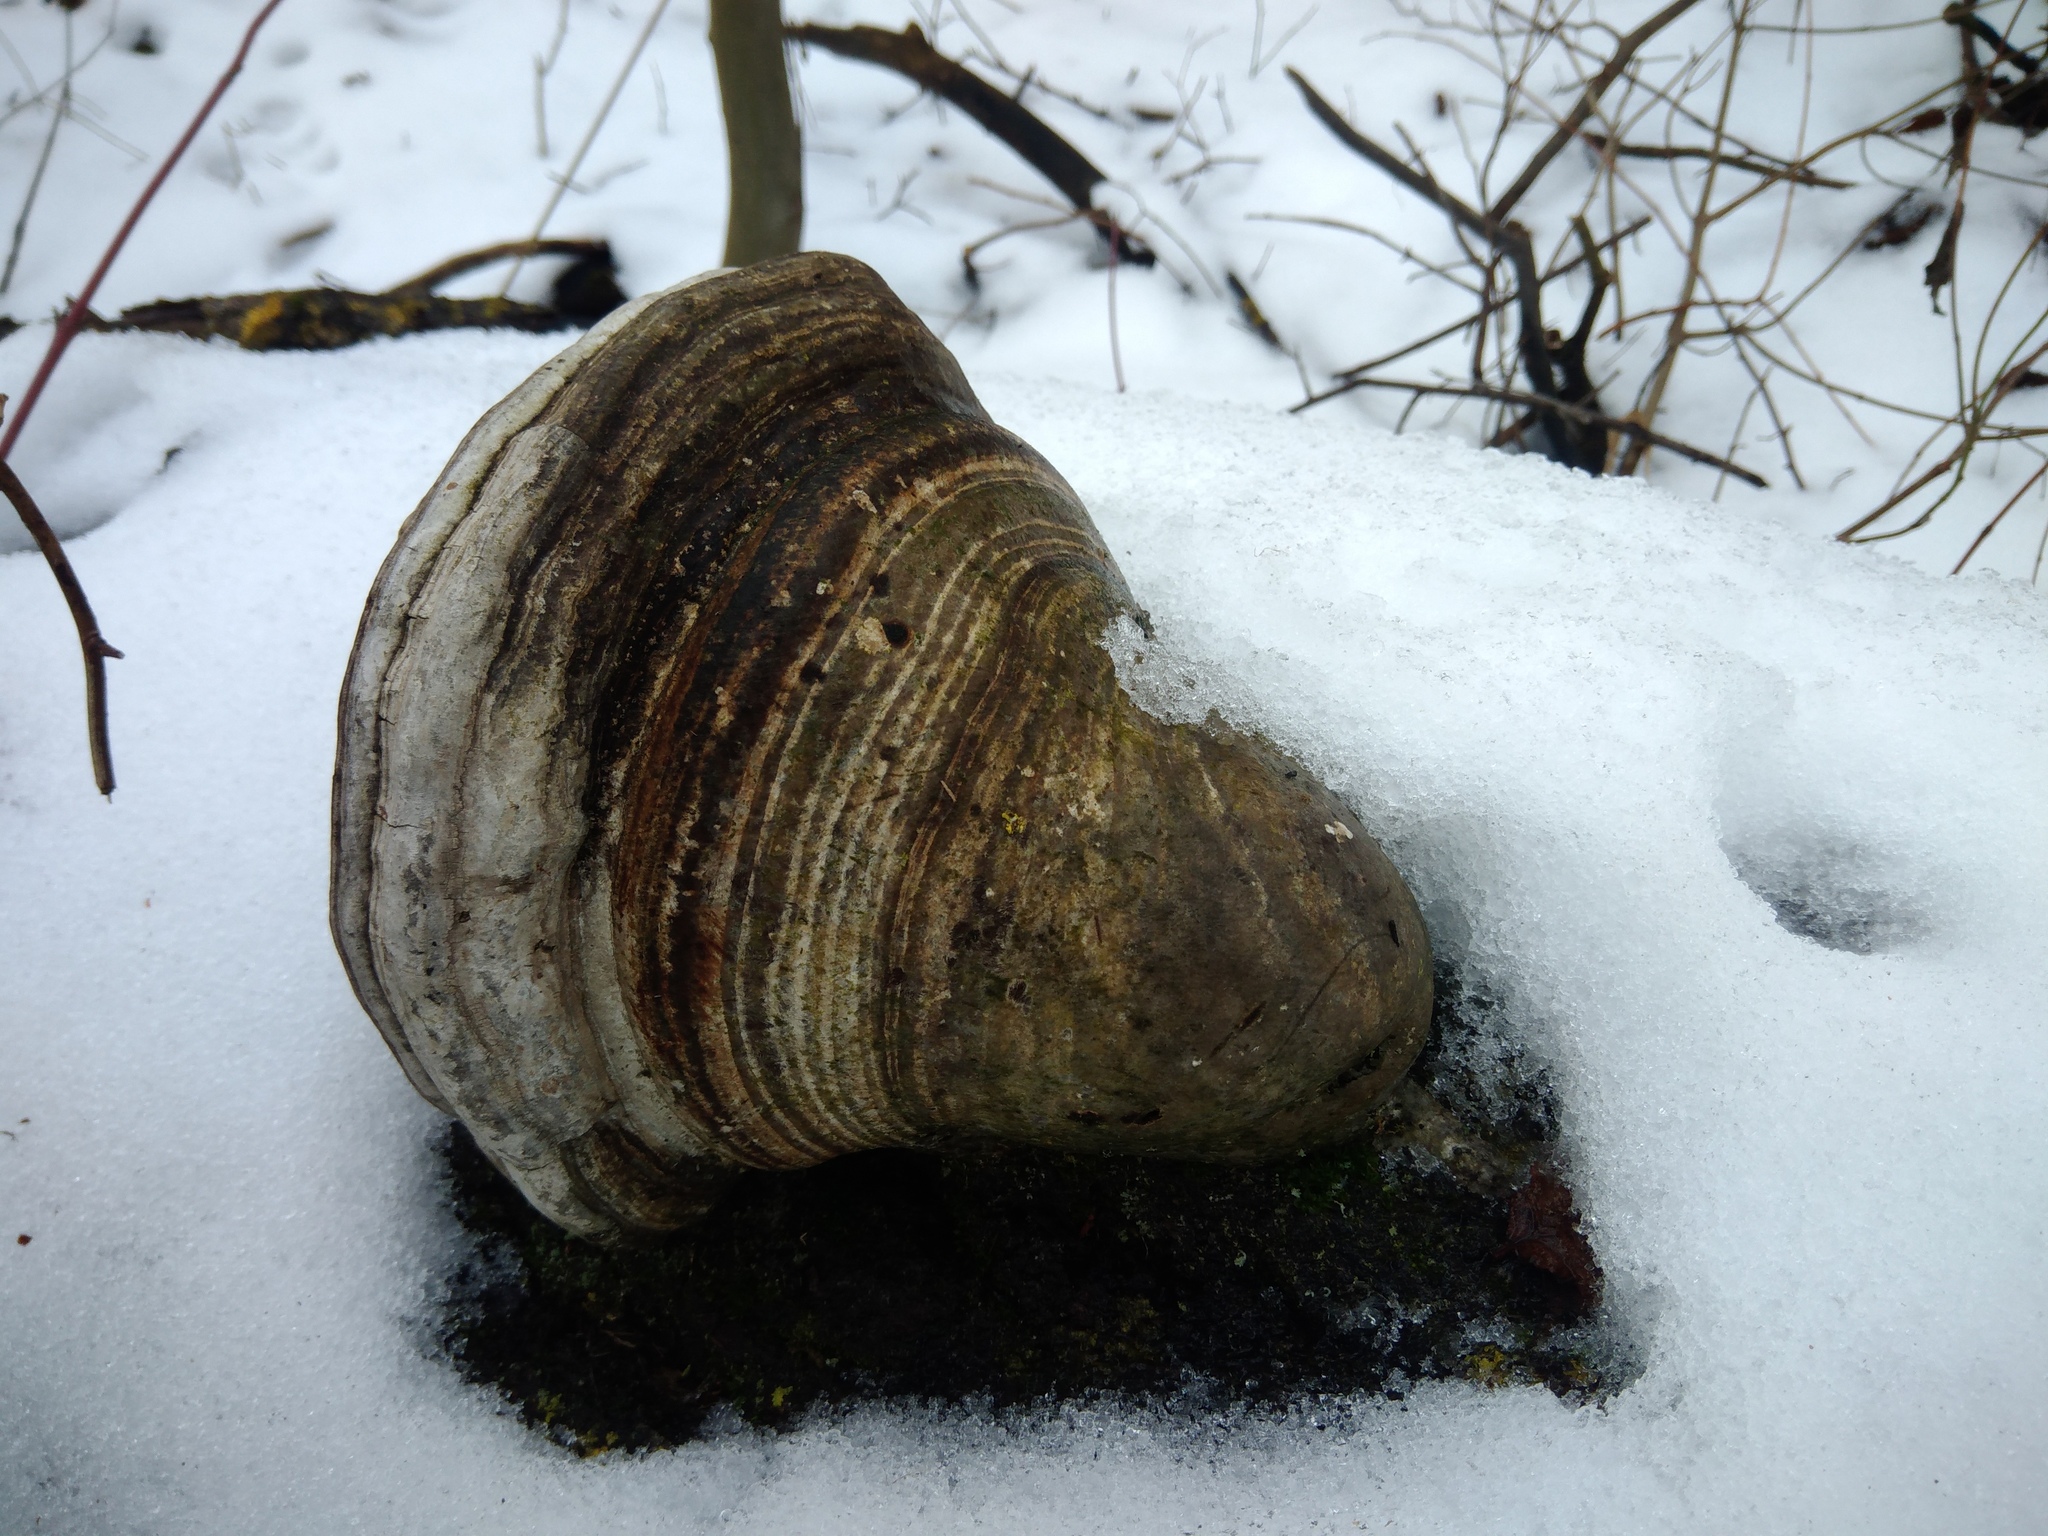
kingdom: Fungi
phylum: Basidiomycota
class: Agaricomycetes
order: Polyporales
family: Polyporaceae
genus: Fomes
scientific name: Fomes fomentarius
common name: Hoof fungus
